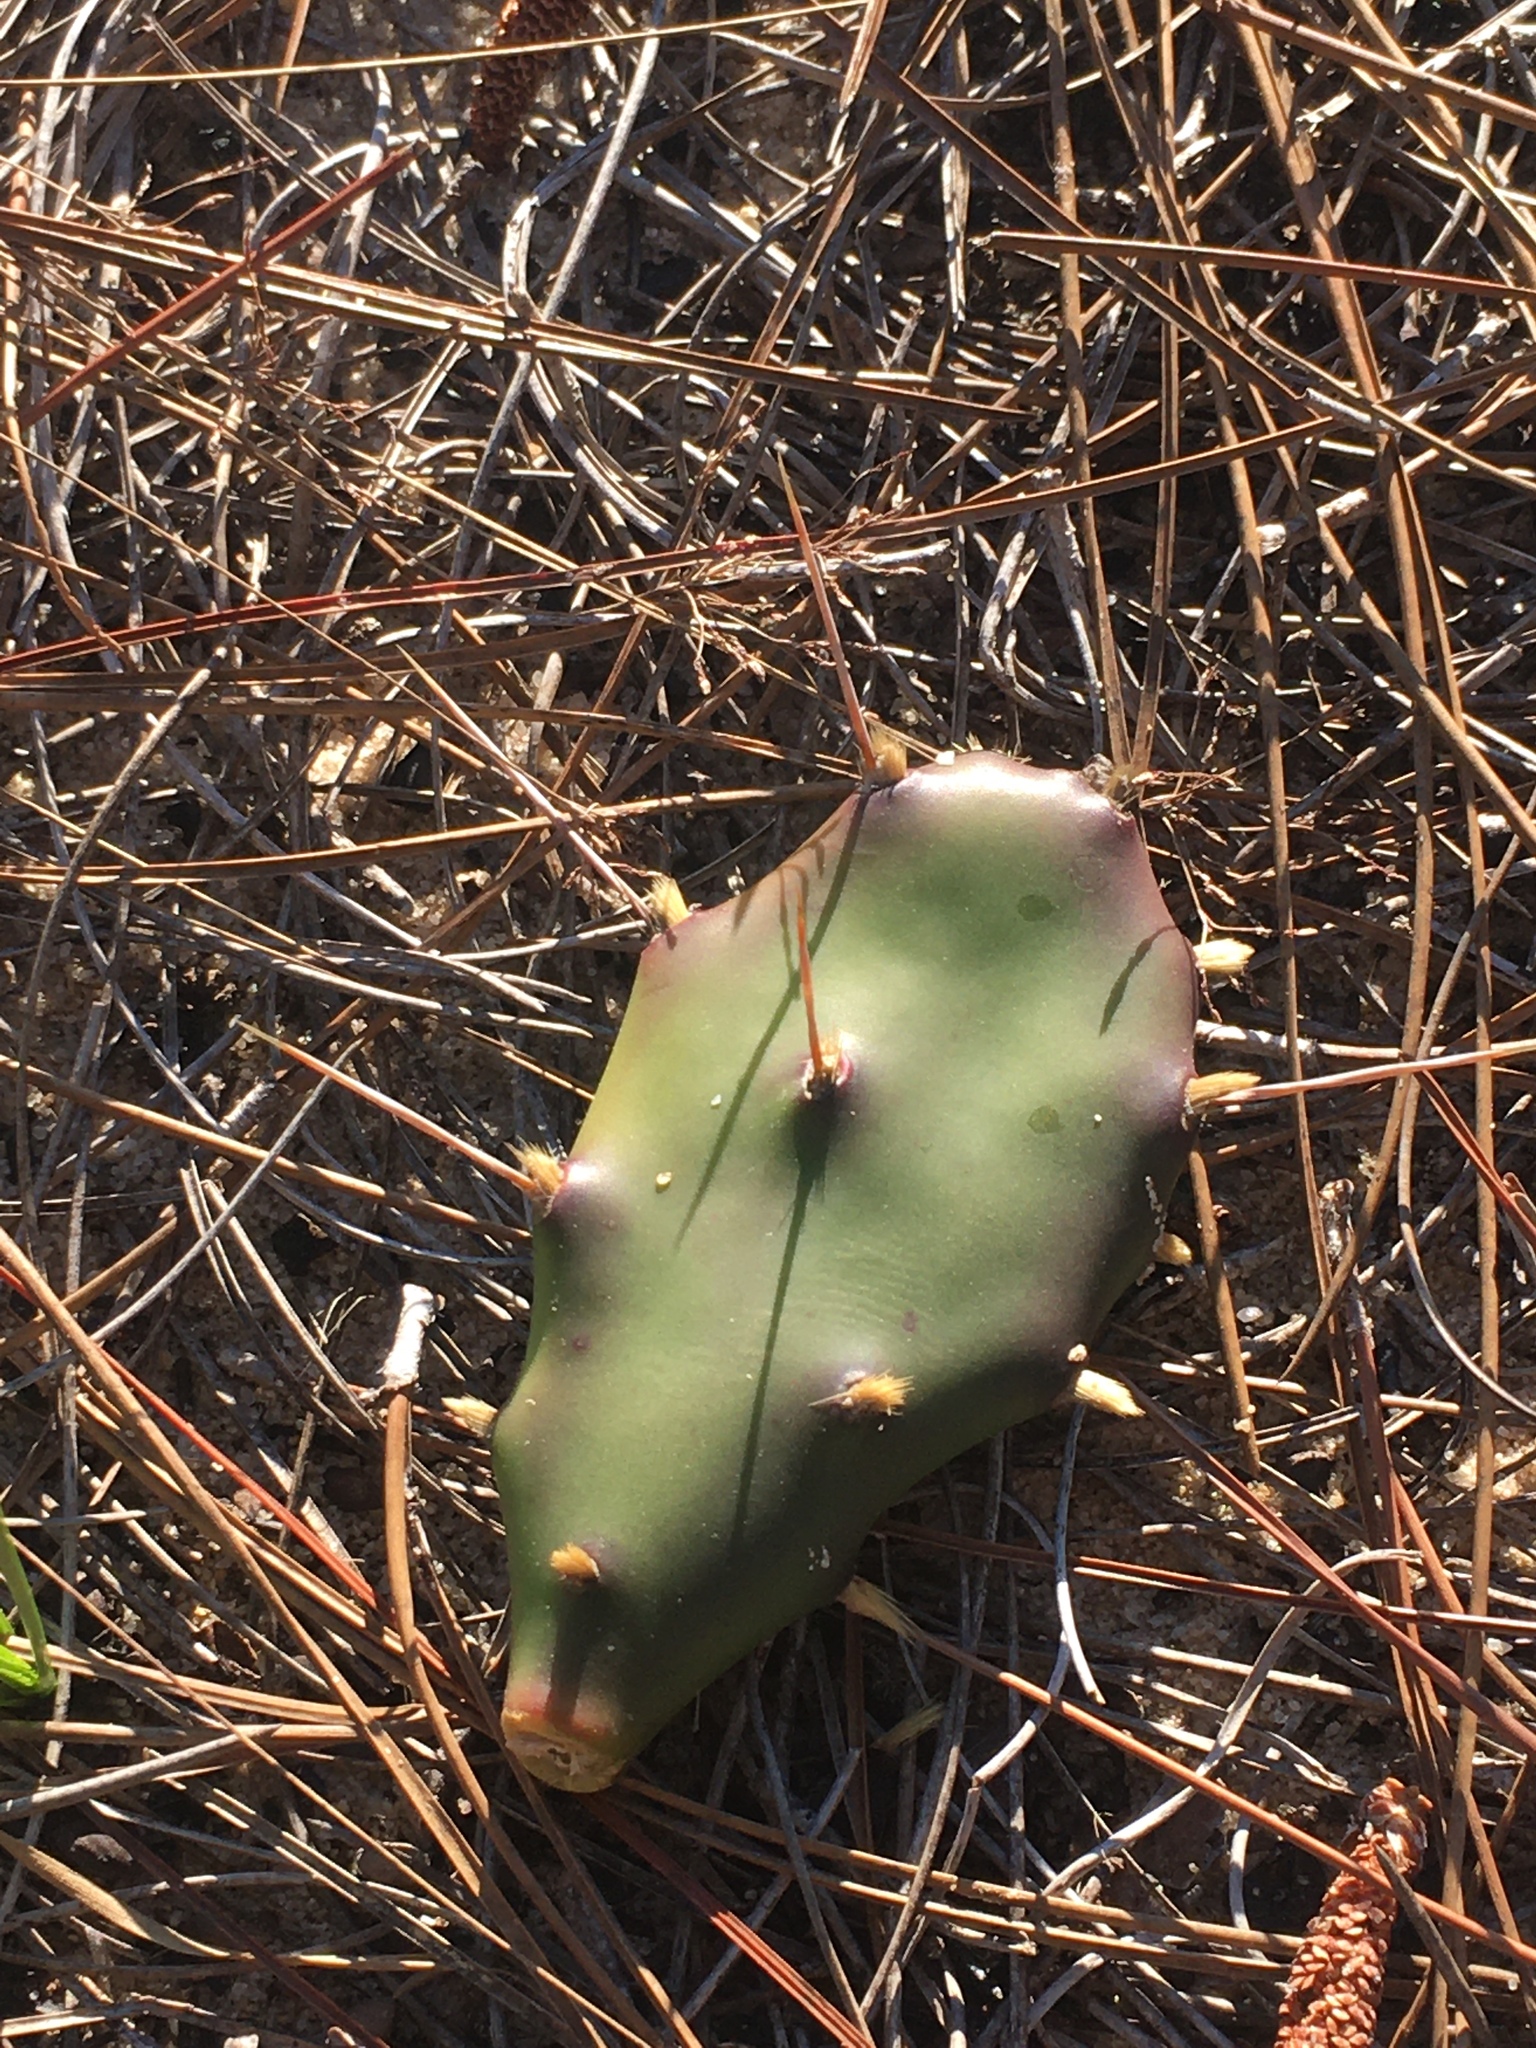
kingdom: Plantae
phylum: Tracheophyta
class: Magnoliopsida
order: Caryophyllales
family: Cactaceae
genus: Opuntia
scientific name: Opuntia austrina
